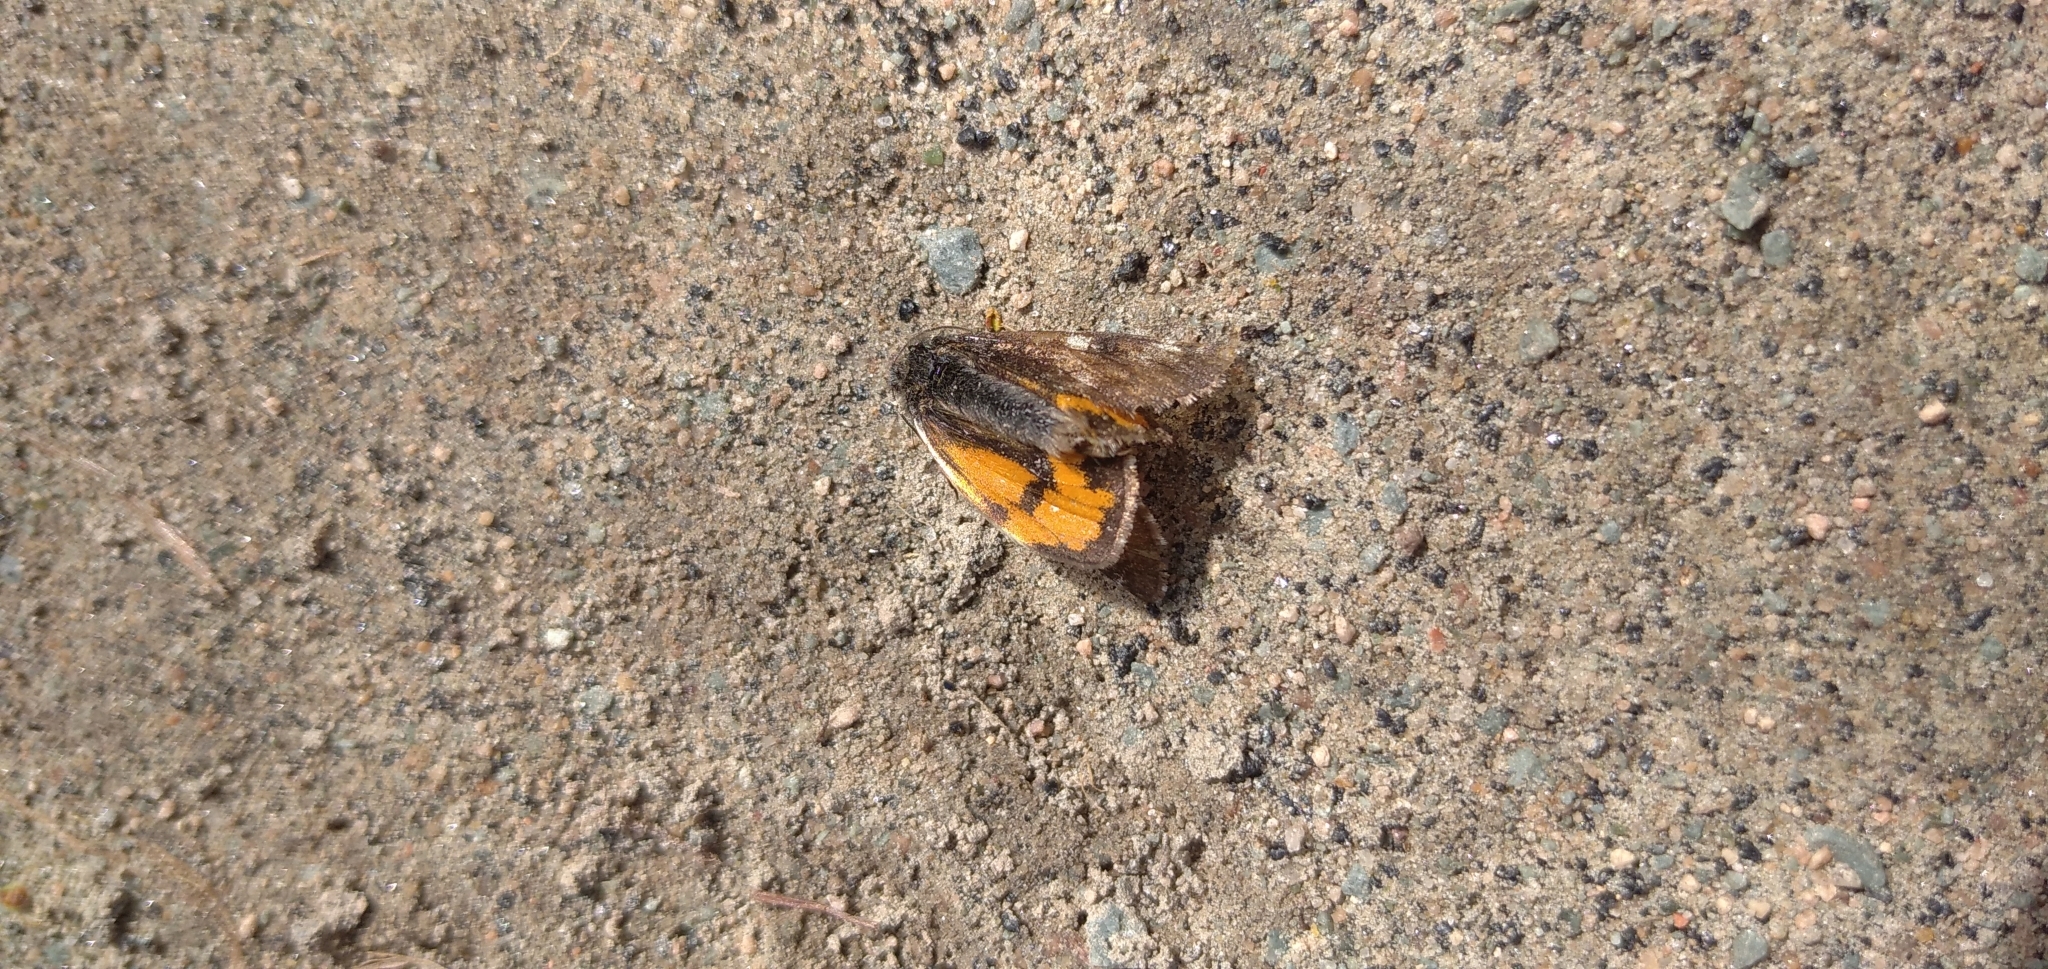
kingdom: Animalia
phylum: Arthropoda
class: Insecta
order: Lepidoptera
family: Geometridae
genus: Archiearis
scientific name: Archiearis parthenias
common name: Orange underwing
